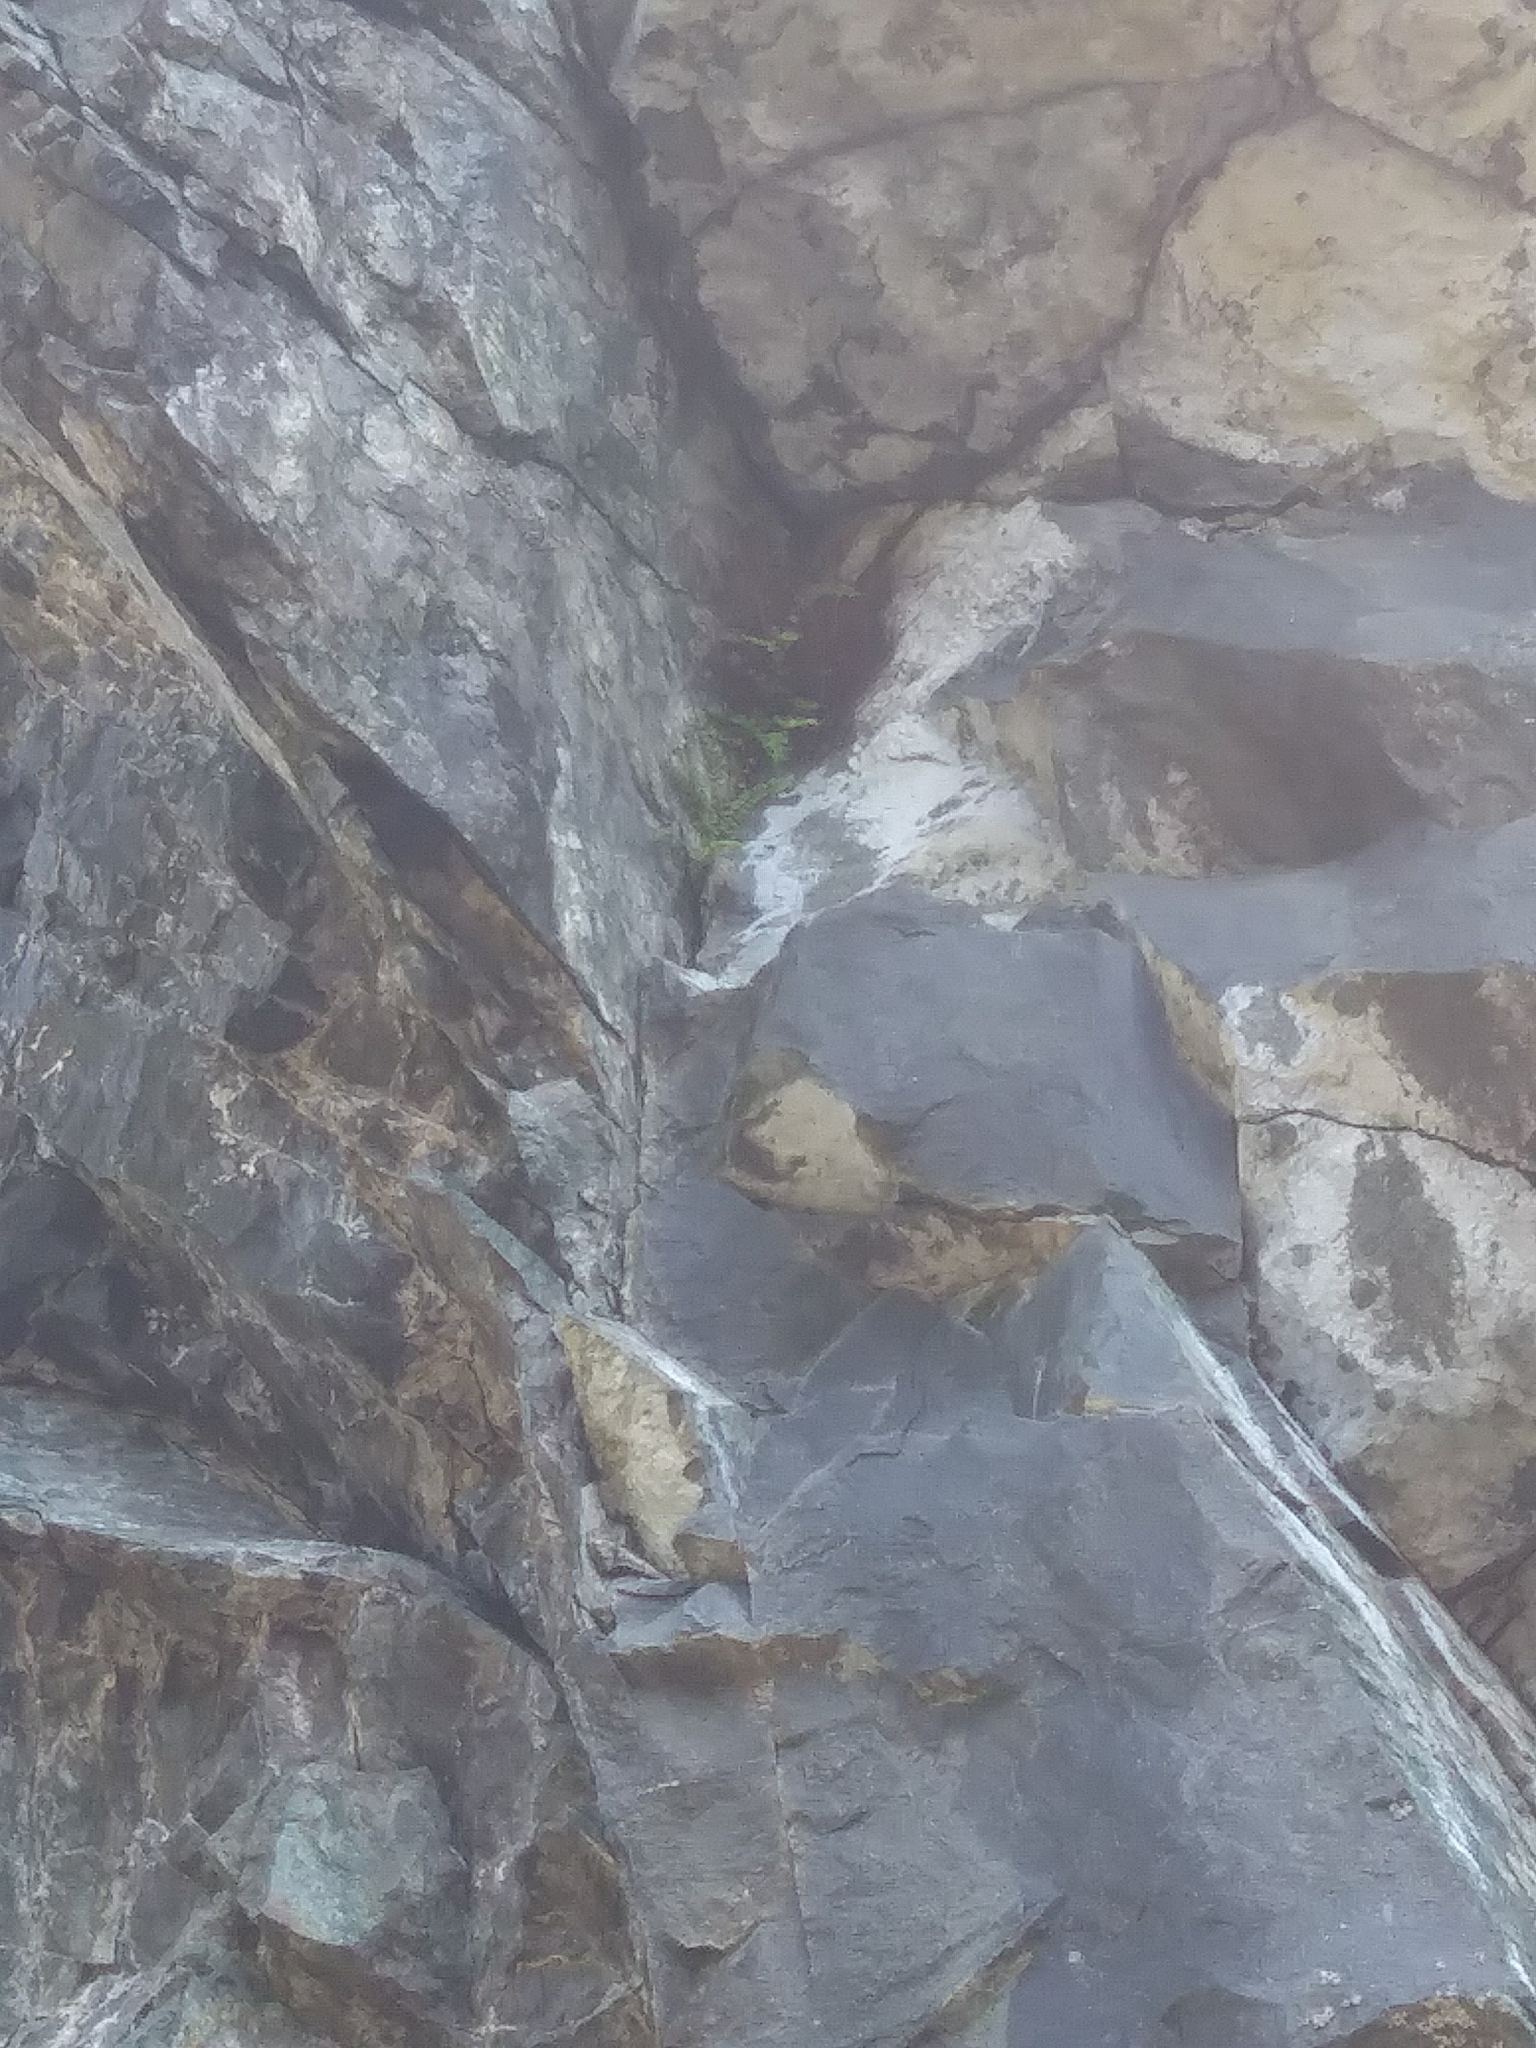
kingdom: Plantae
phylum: Tracheophyta
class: Polypodiopsida
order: Polypodiales
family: Aspleniaceae
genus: Asplenium
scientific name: Asplenium trichomanes
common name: Maidenhair spleenwort
